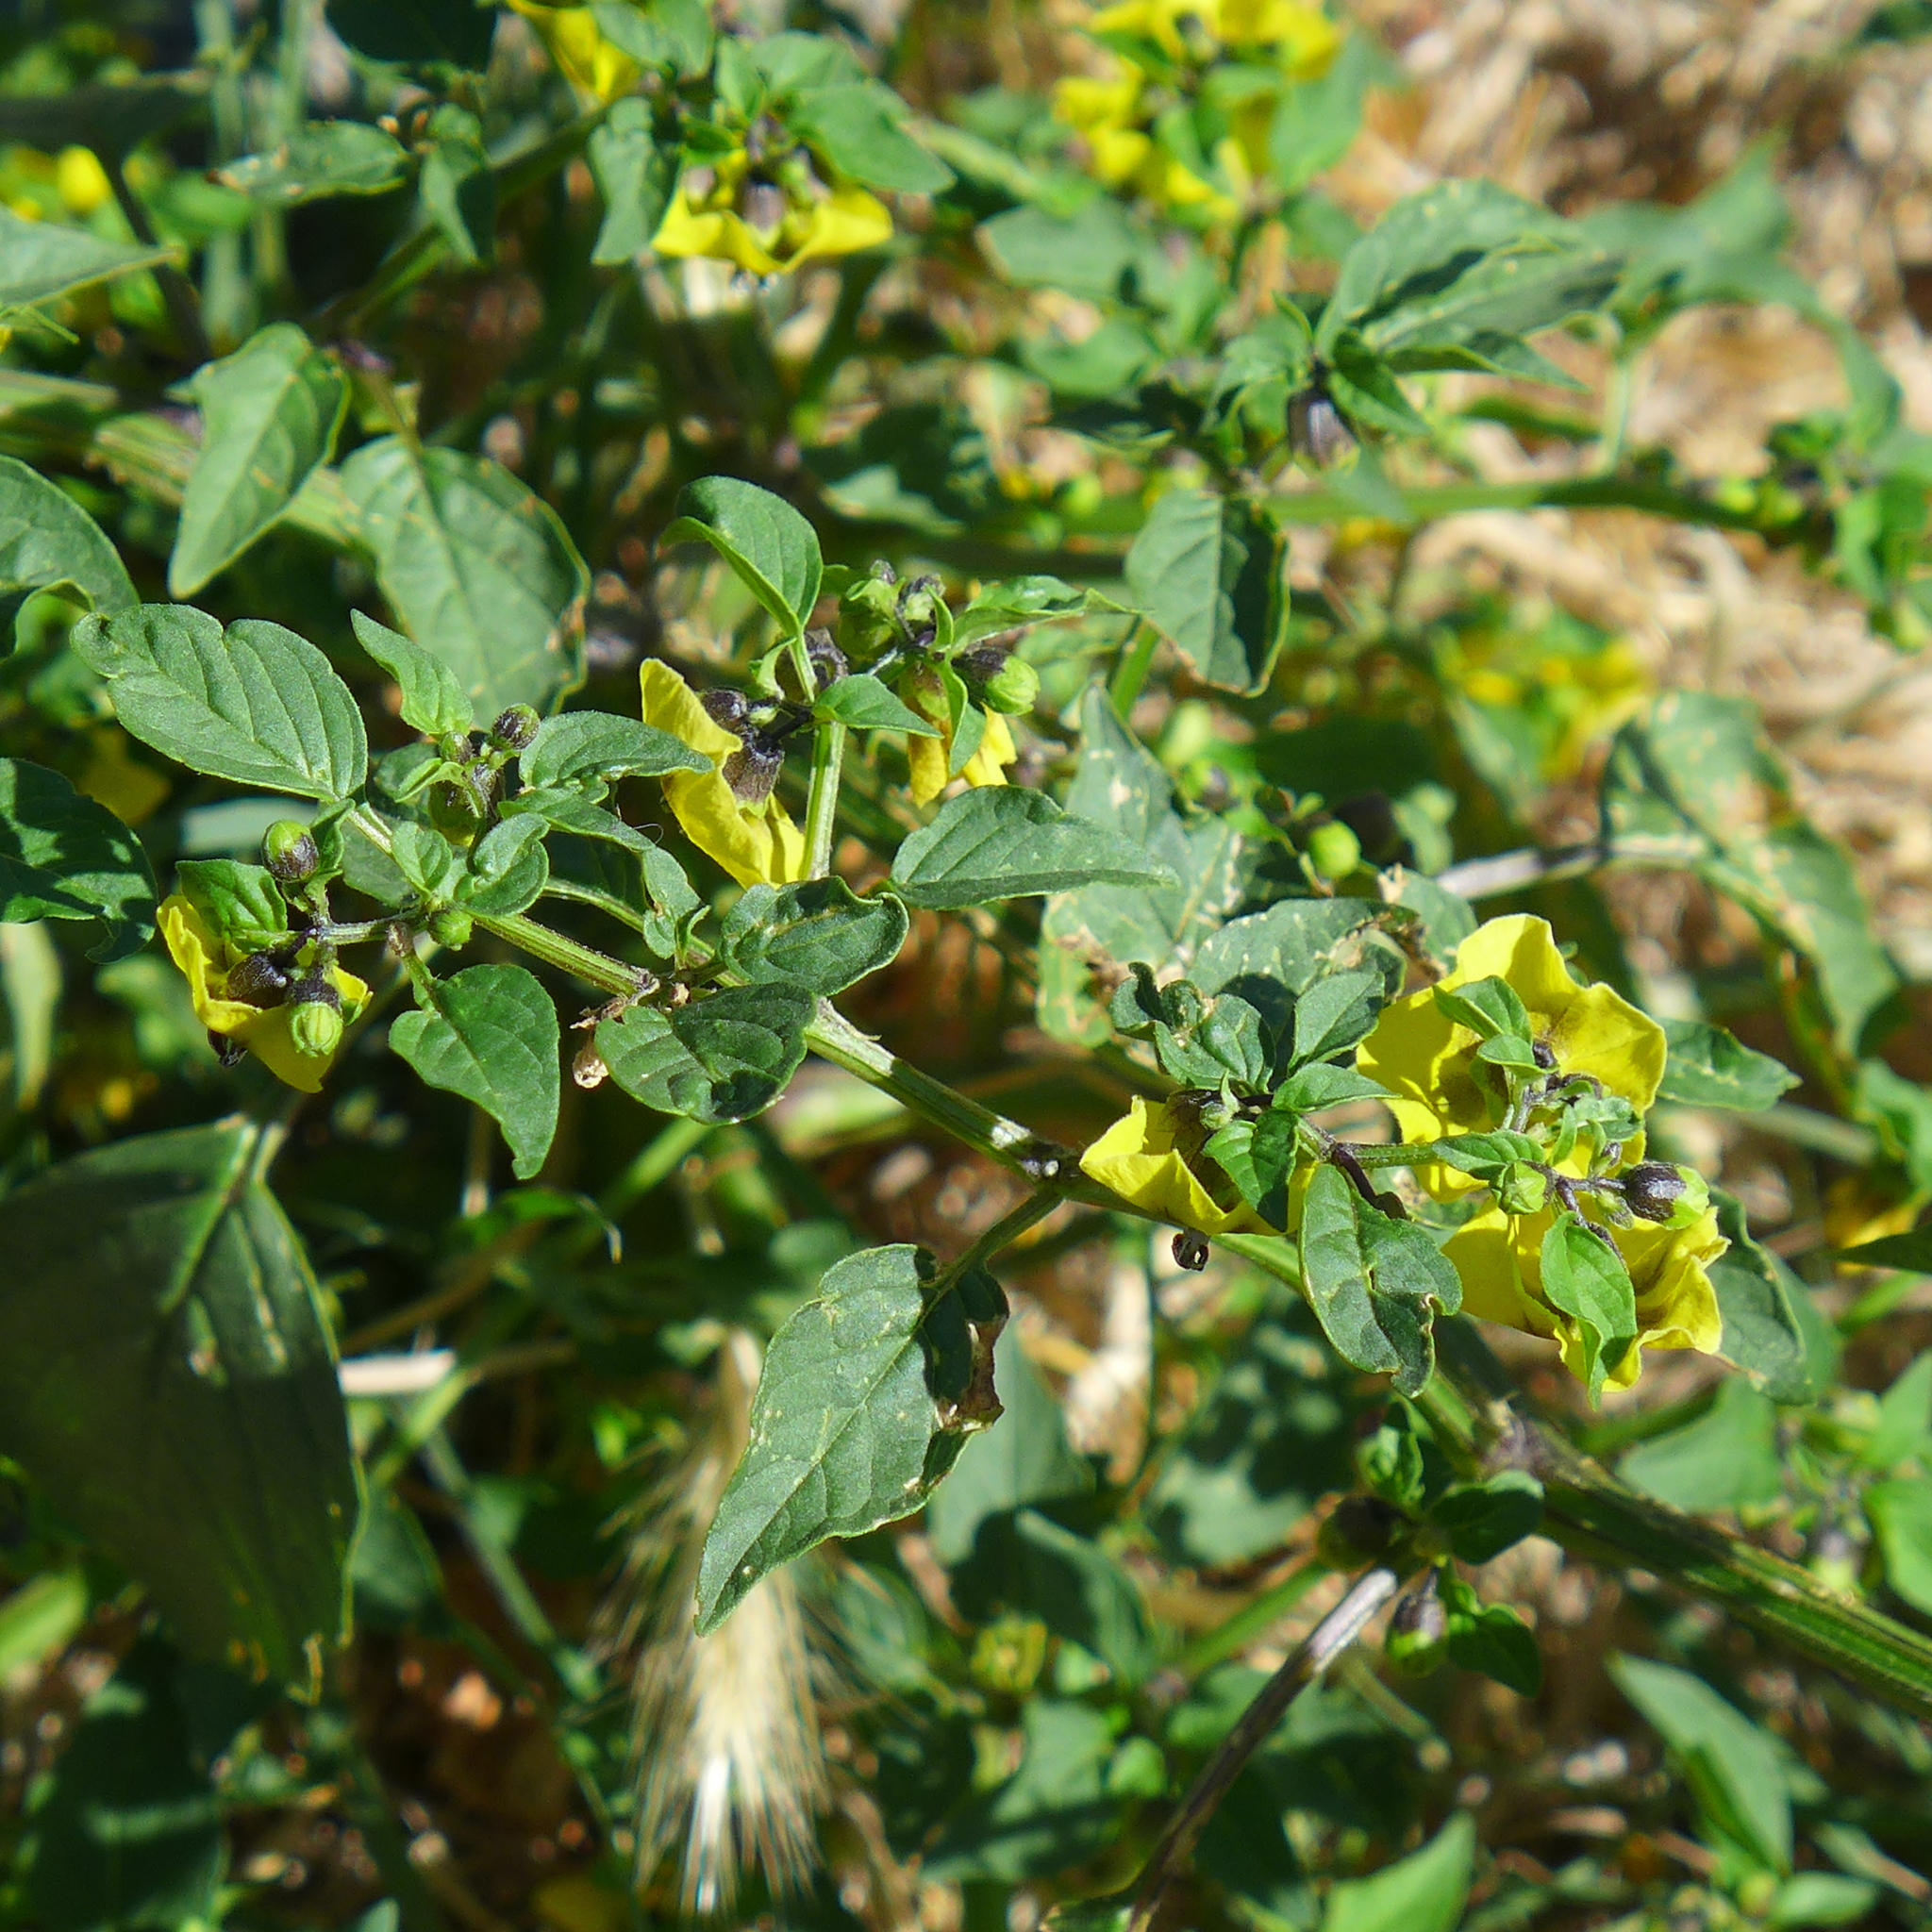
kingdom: Plantae
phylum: Tracheophyta
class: Magnoliopsida
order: Solanales
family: Solanaceae
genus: Physalis
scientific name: Physalis philadelphica
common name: Husk-tomato
